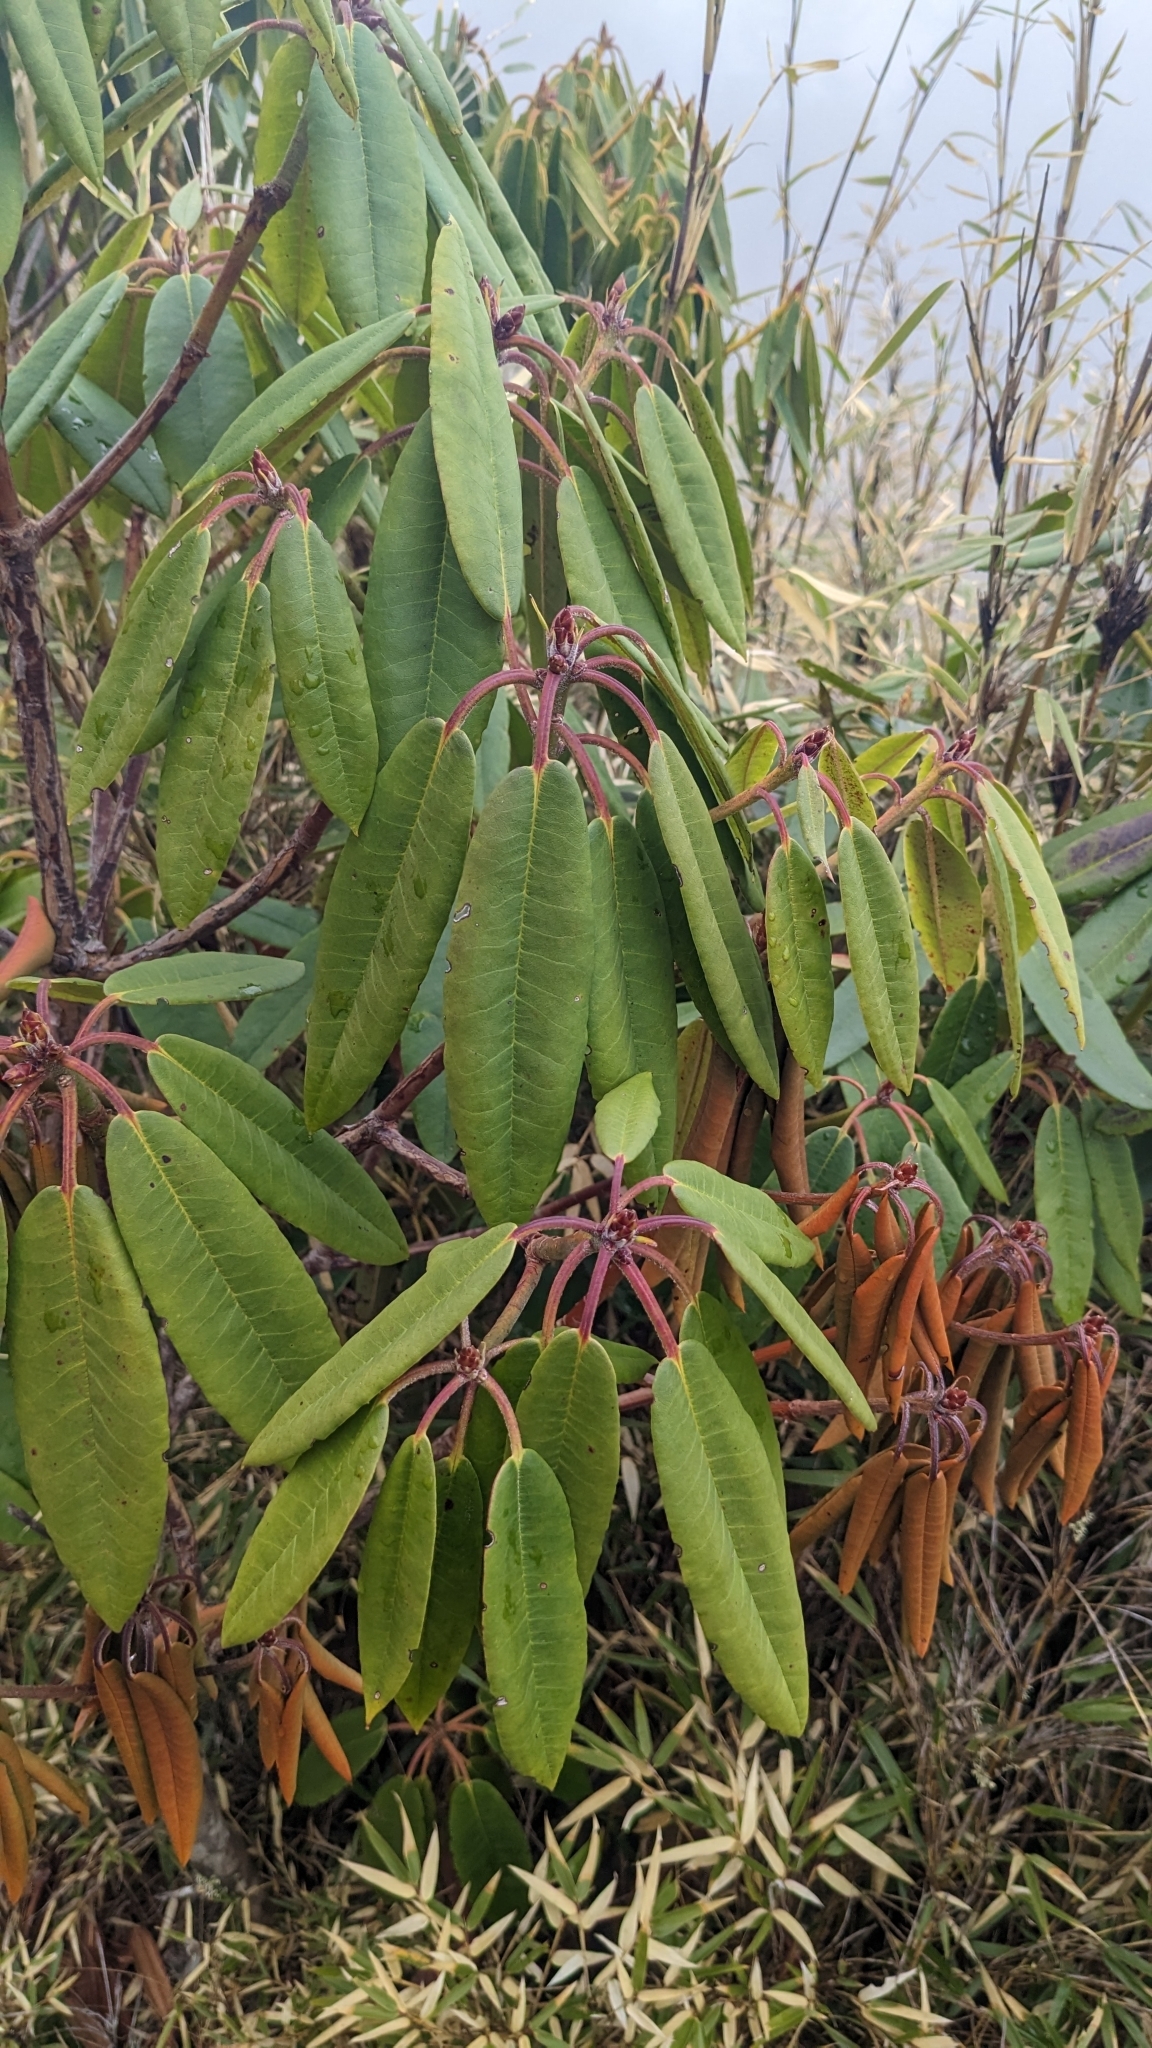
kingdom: Plantae
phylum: Tracheophyta
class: Magnoliopsida
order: Ericales
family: Ericaceae
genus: Rhododendron
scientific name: Rhododendron pseudochrysanthum
